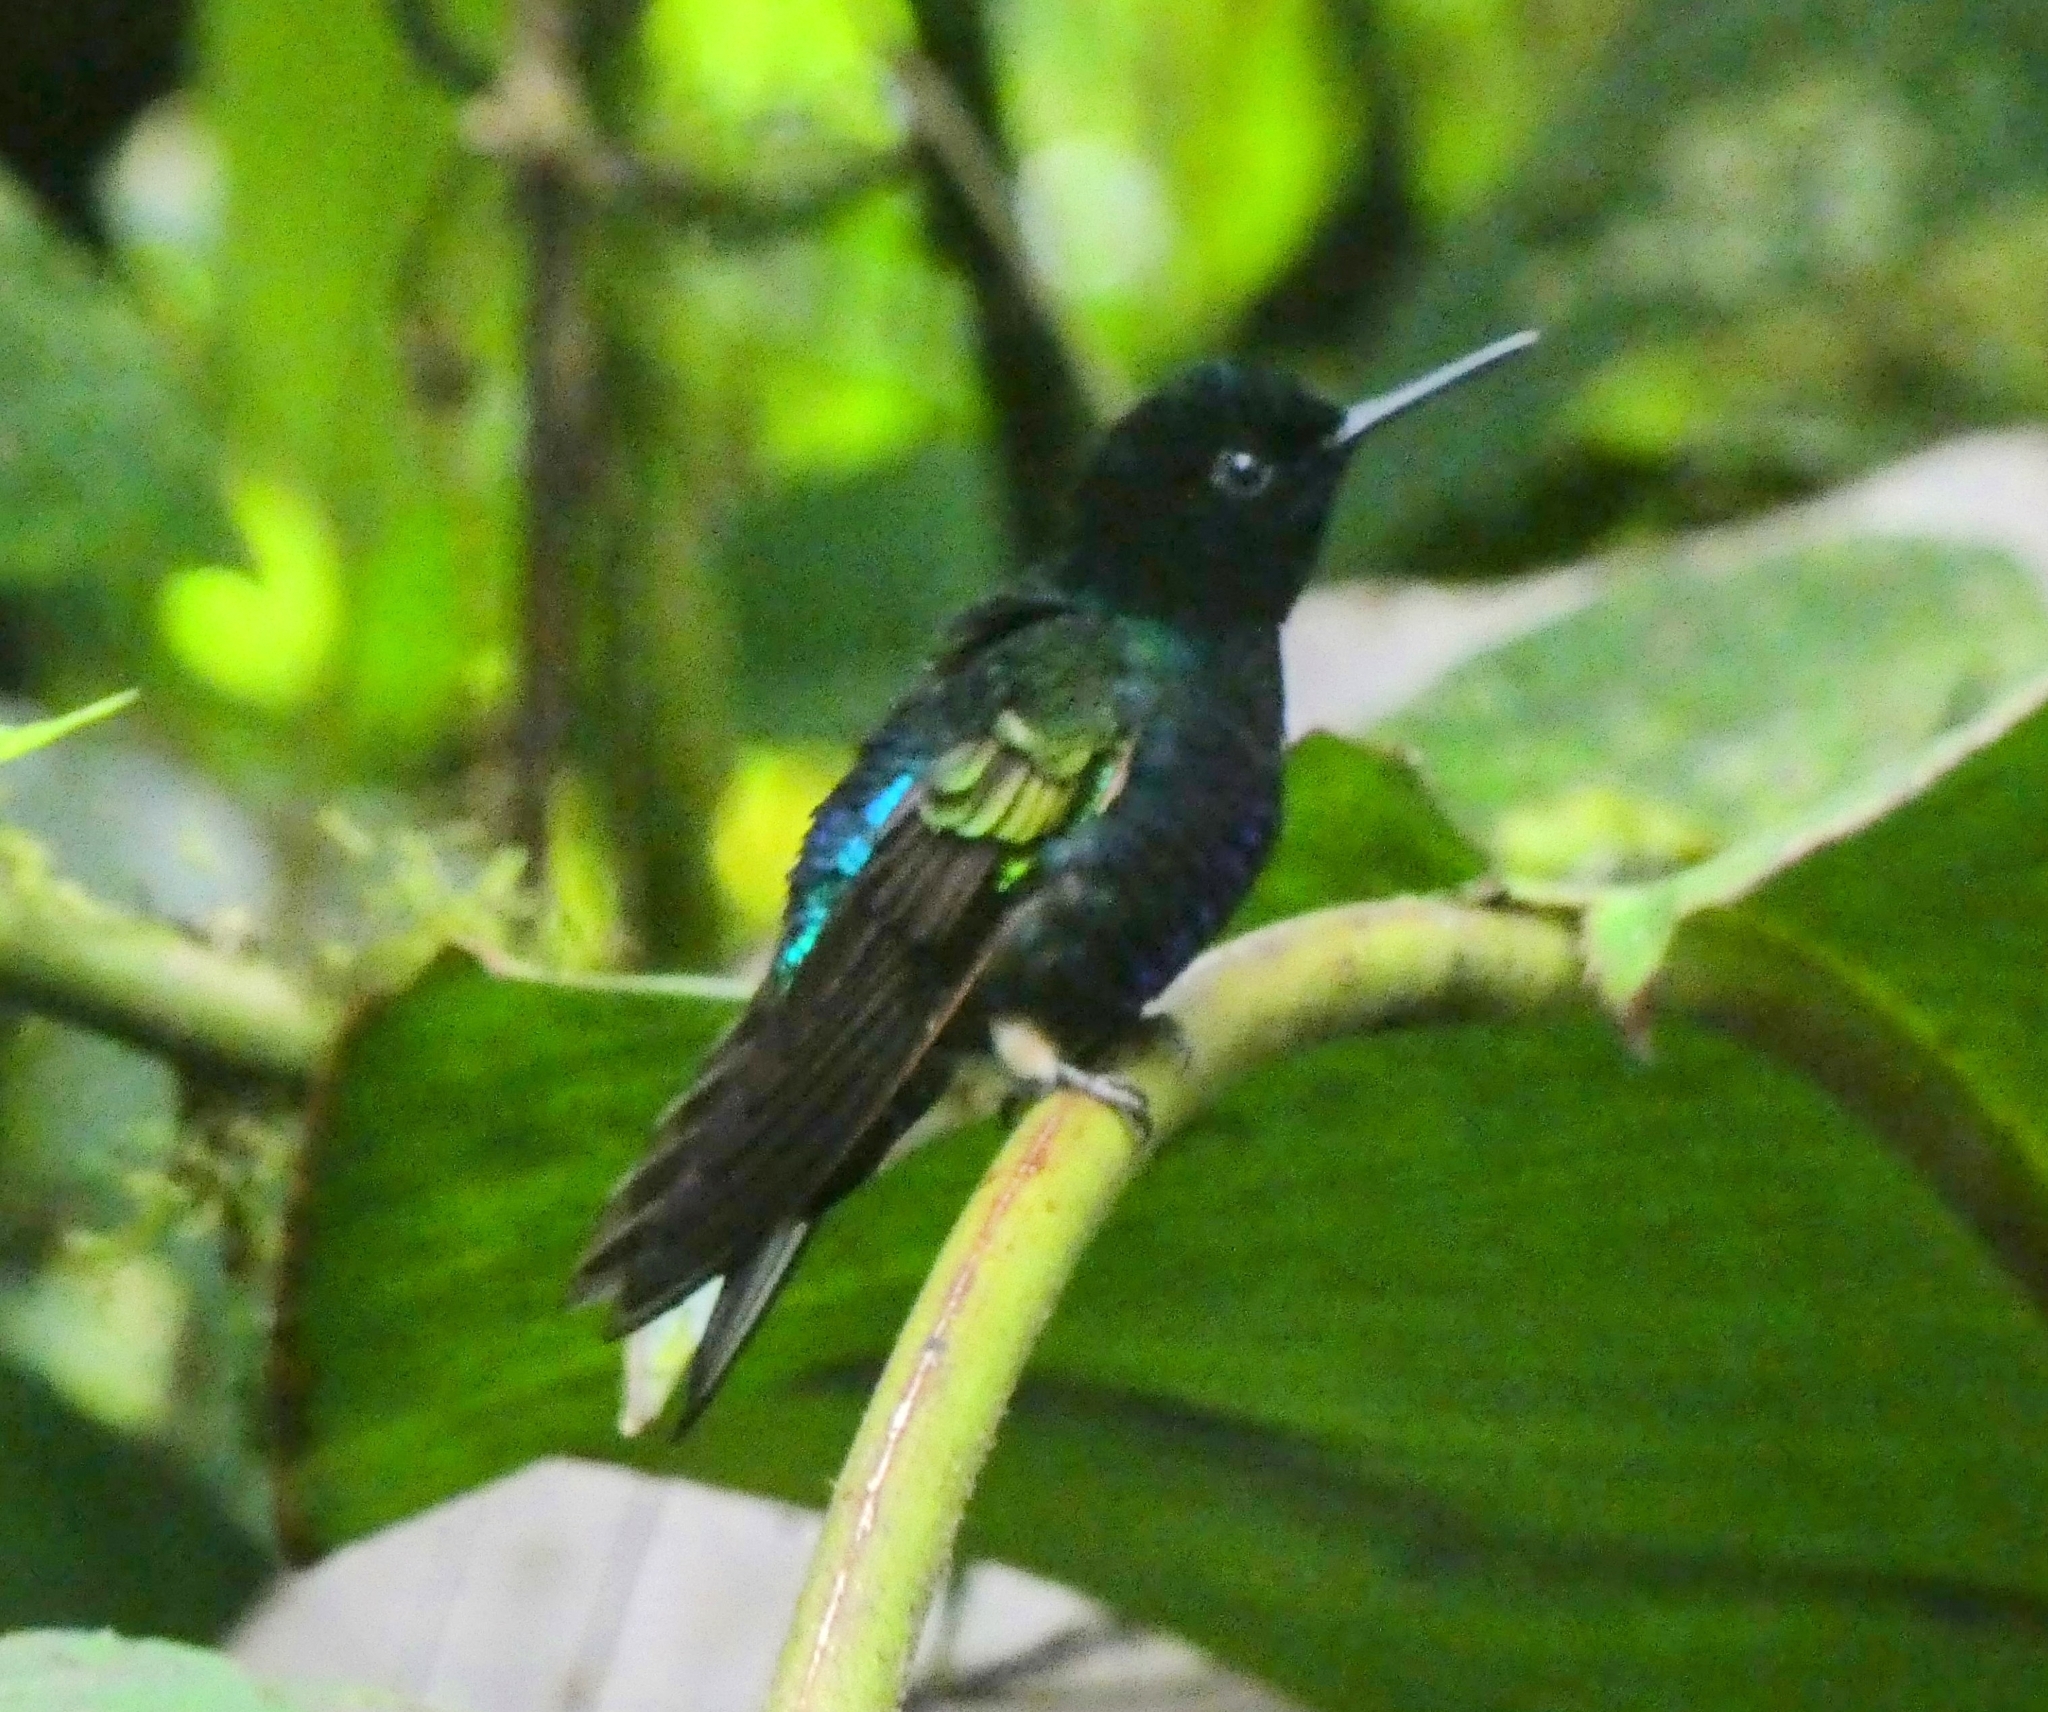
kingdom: Animalia
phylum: Chordata
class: Aves
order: Apodiformes
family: Trochilidae
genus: Boissonneaua
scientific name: Boissonneaua jardini
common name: Velvet-purple coronet
